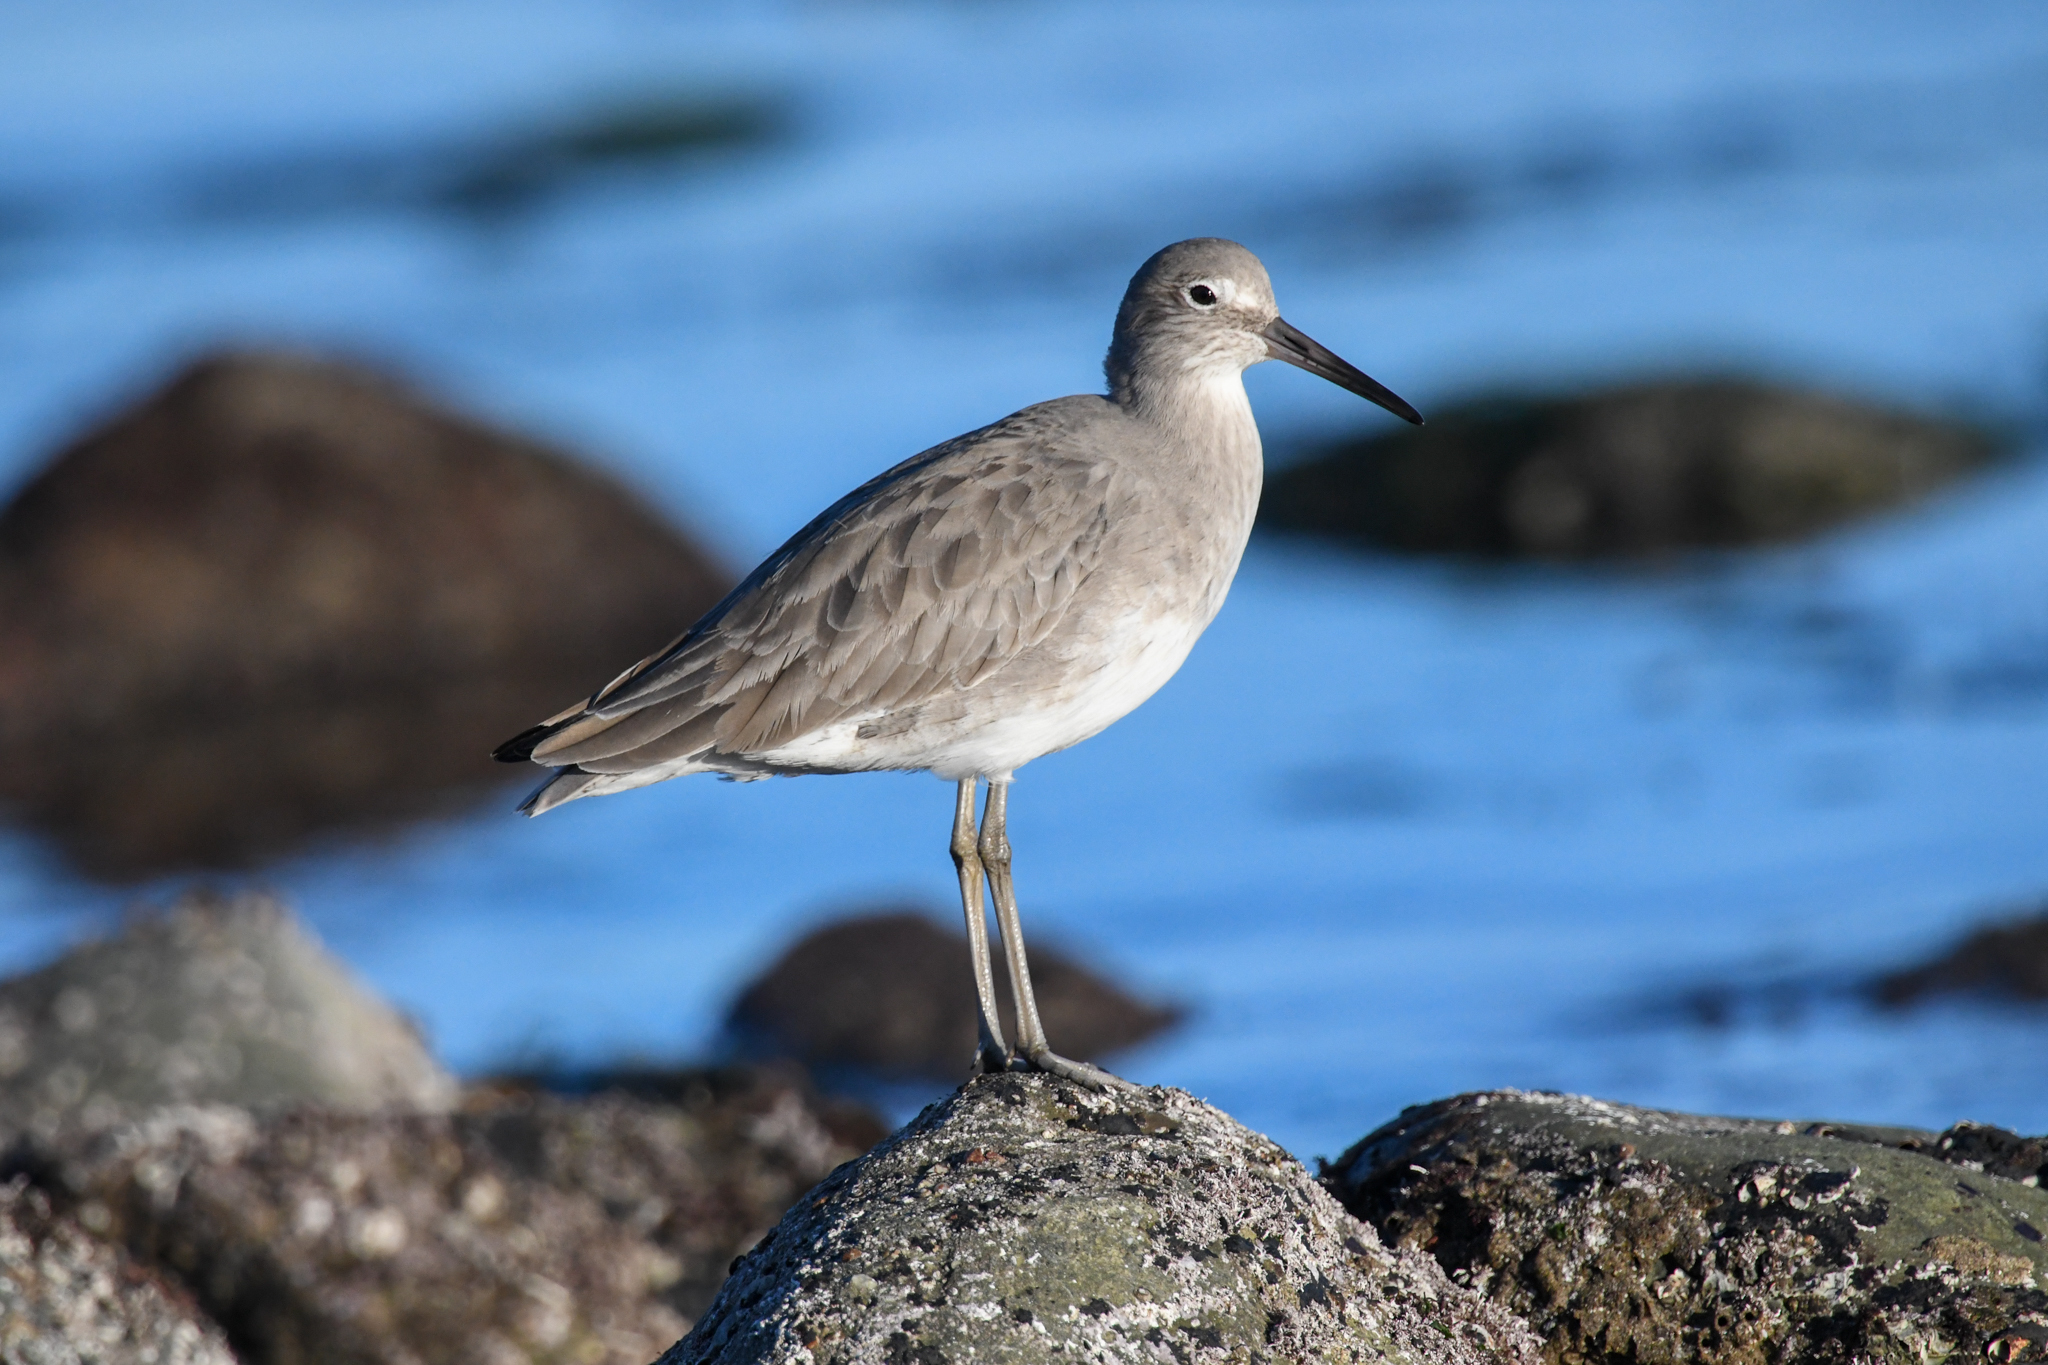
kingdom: Animalia
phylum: Chordata
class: Aves
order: Charadriiformes
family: Scolopacidae
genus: Tringa
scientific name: Tringa semipalmata
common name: Willet
